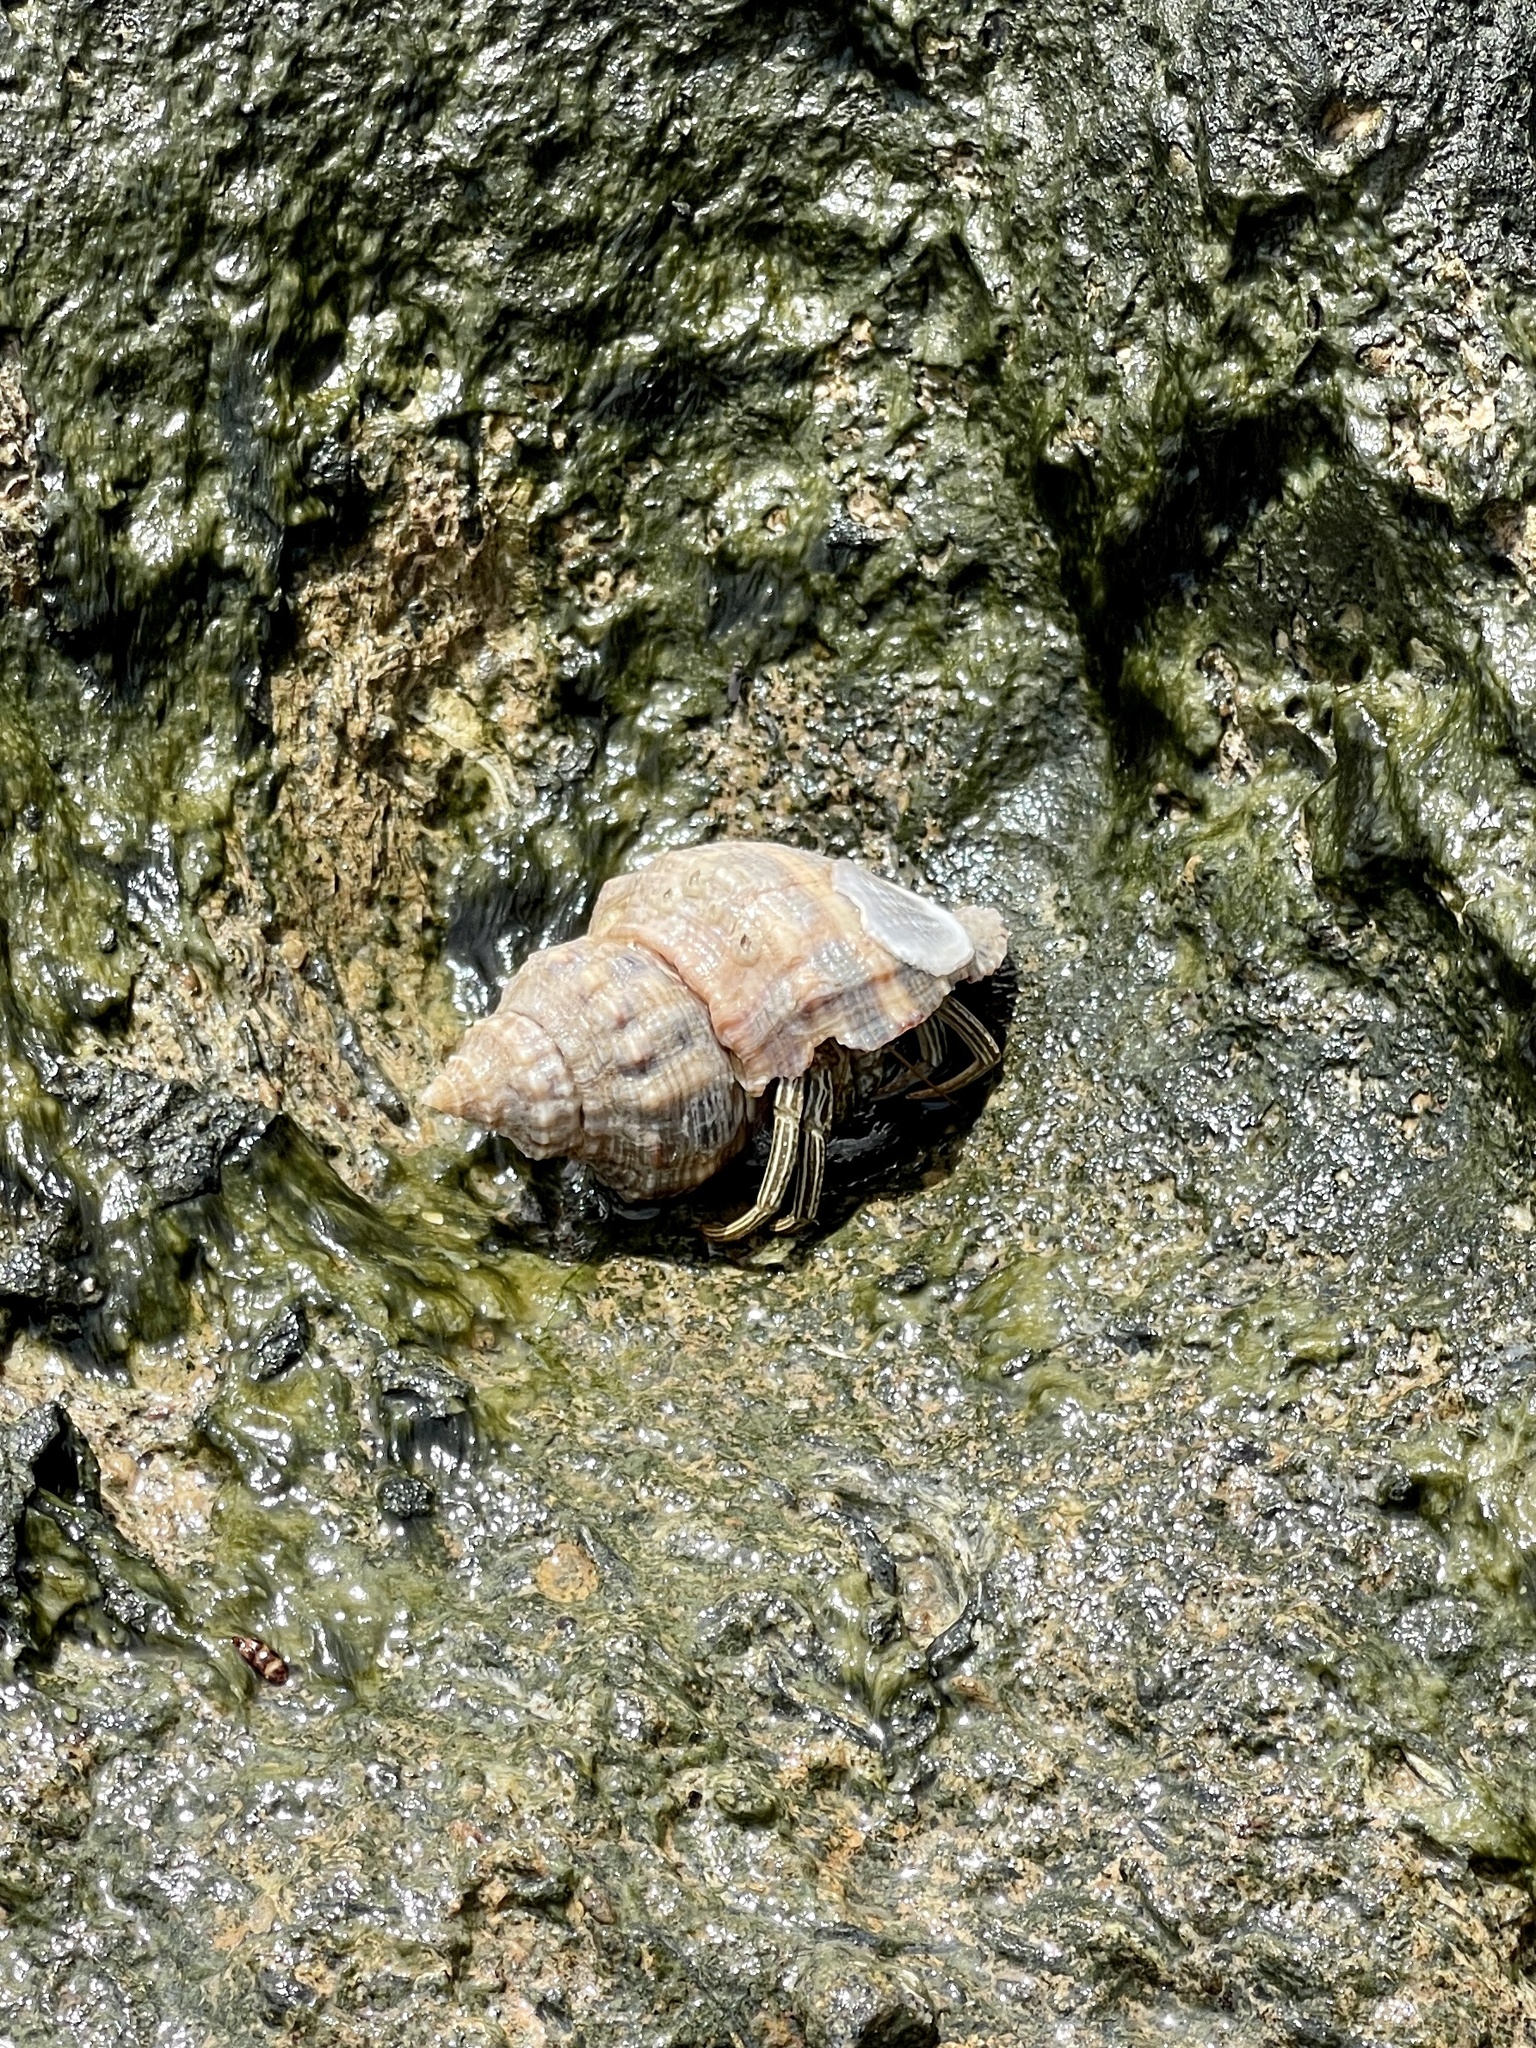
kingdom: Animalia
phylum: Arthropoda
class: Malacostraca
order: Decapoda
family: Diogenidae
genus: Clibanarius
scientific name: Clibanarius vittatus
